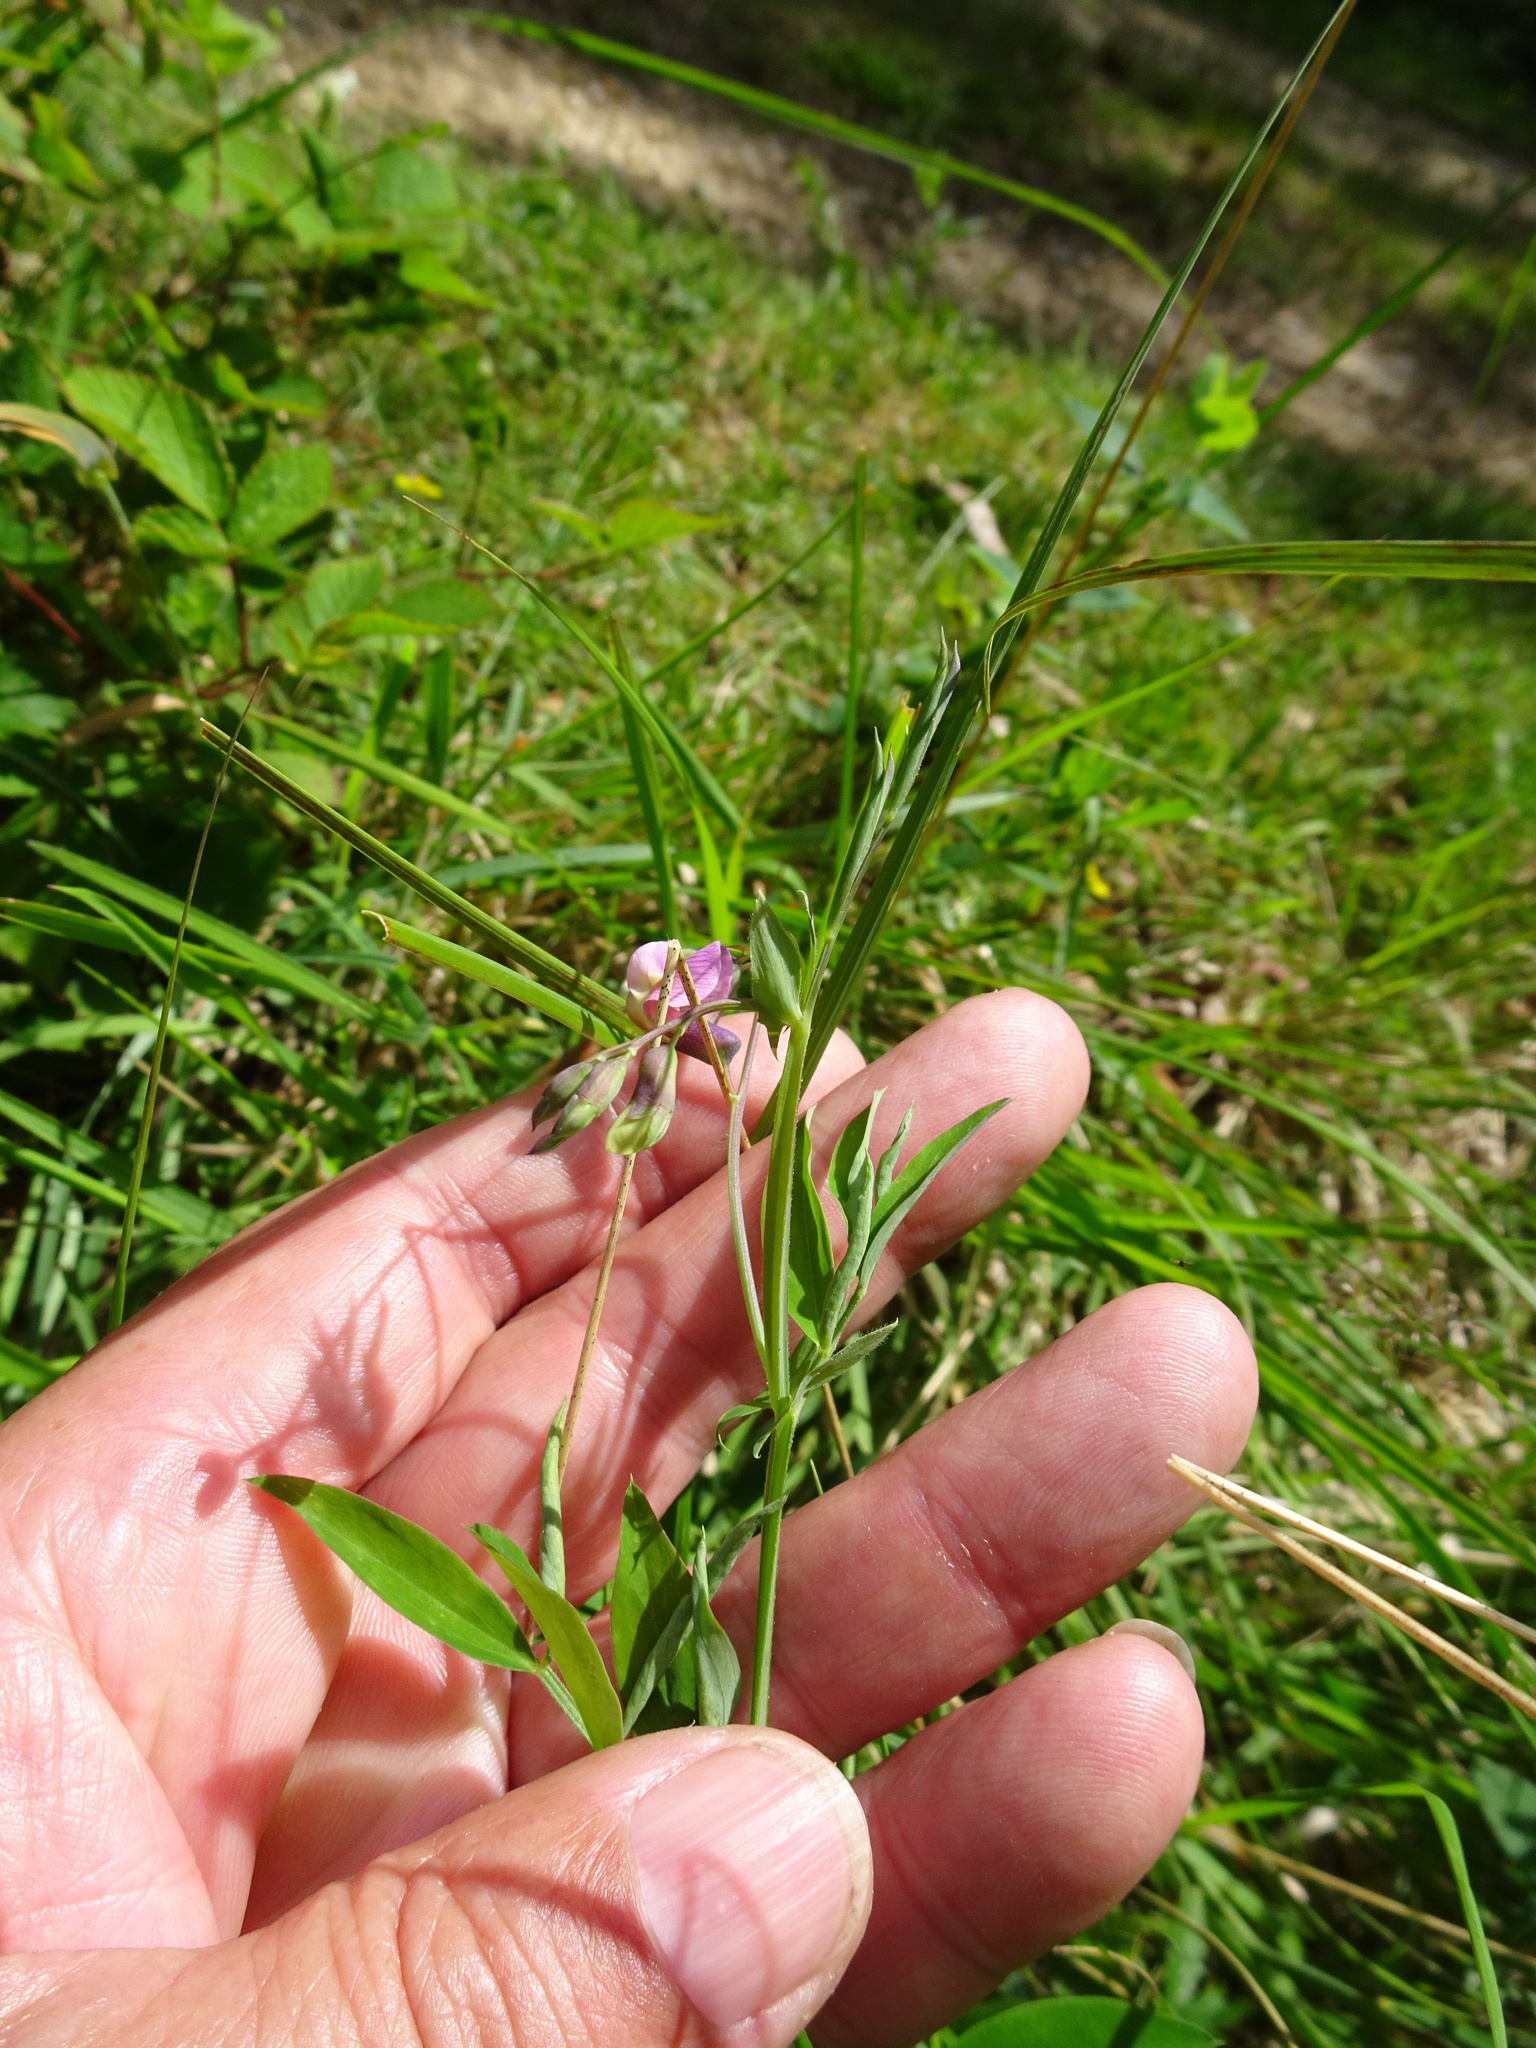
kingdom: Plantae
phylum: Tracheophyta
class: Magnoliopsida
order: Fabales
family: Fabaceae
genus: Lathyrus
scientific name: Lathyrus linifolius
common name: Bitter-vetch
